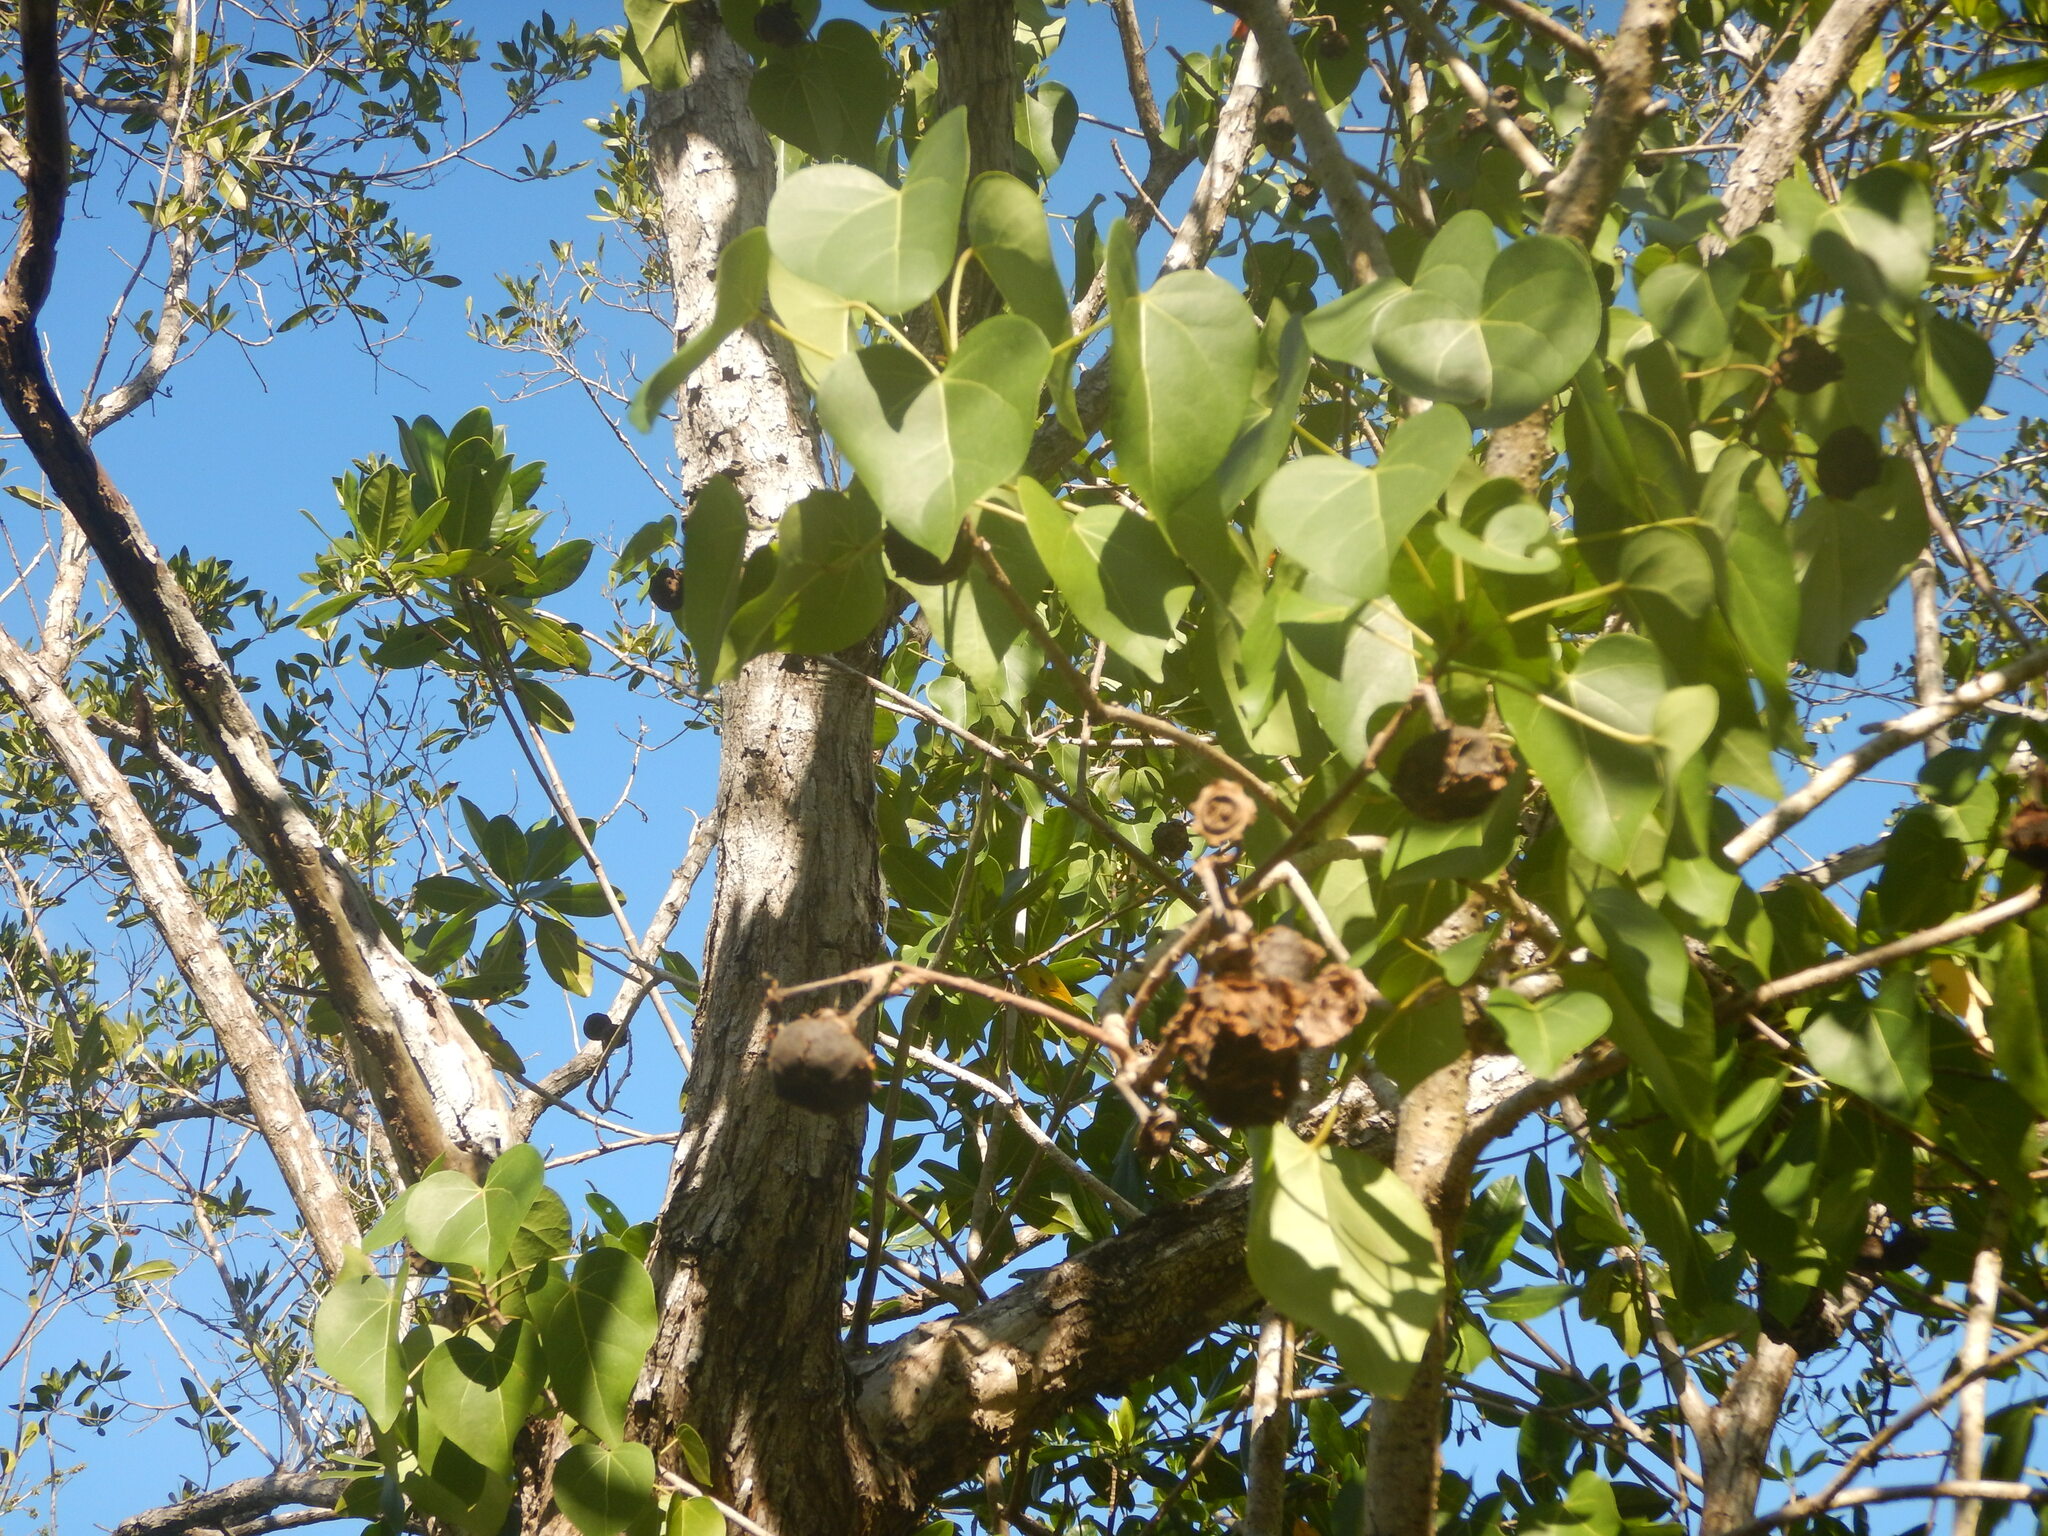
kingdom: Plantae
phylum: Tracheophyta
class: Magnoliopsida
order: Malvales
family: Malvaceae
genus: Thespesia
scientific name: Thespesia populnea
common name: Seaside mahoe
